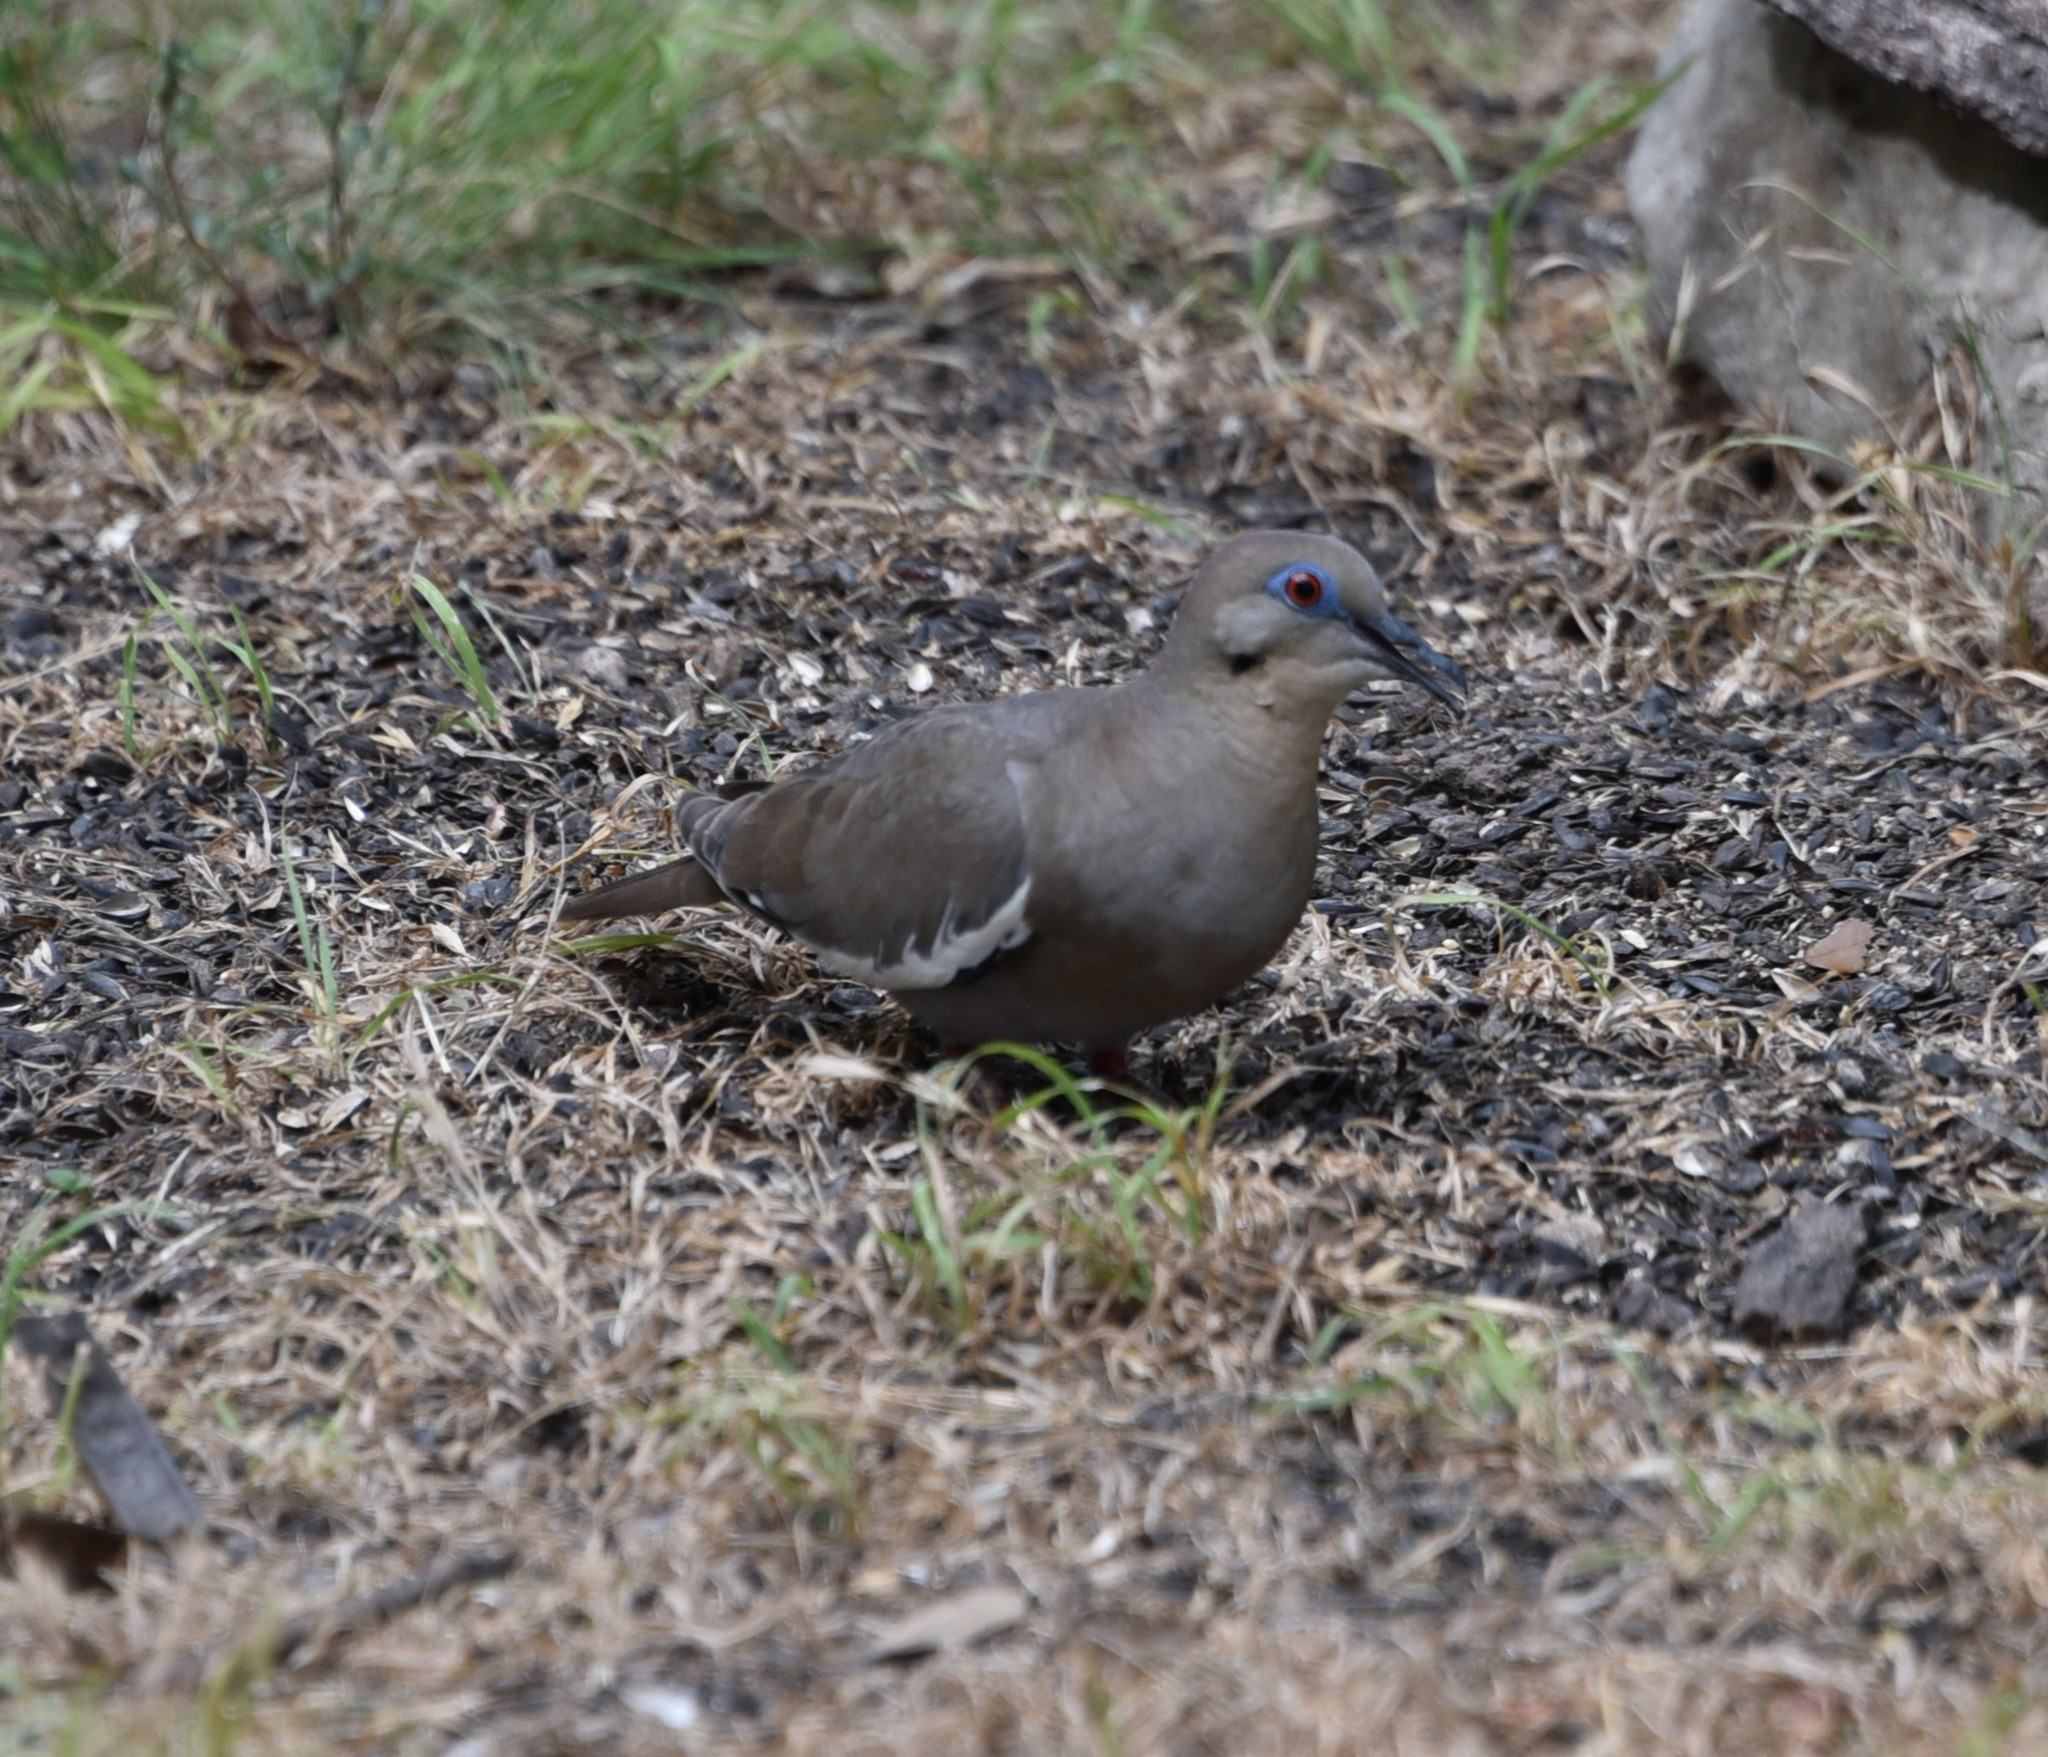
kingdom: Animalia
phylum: Chordata
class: Aves
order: Columbiformes
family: Columbidae
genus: Zenaida
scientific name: Zenaida asiatica
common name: White-winged dove
